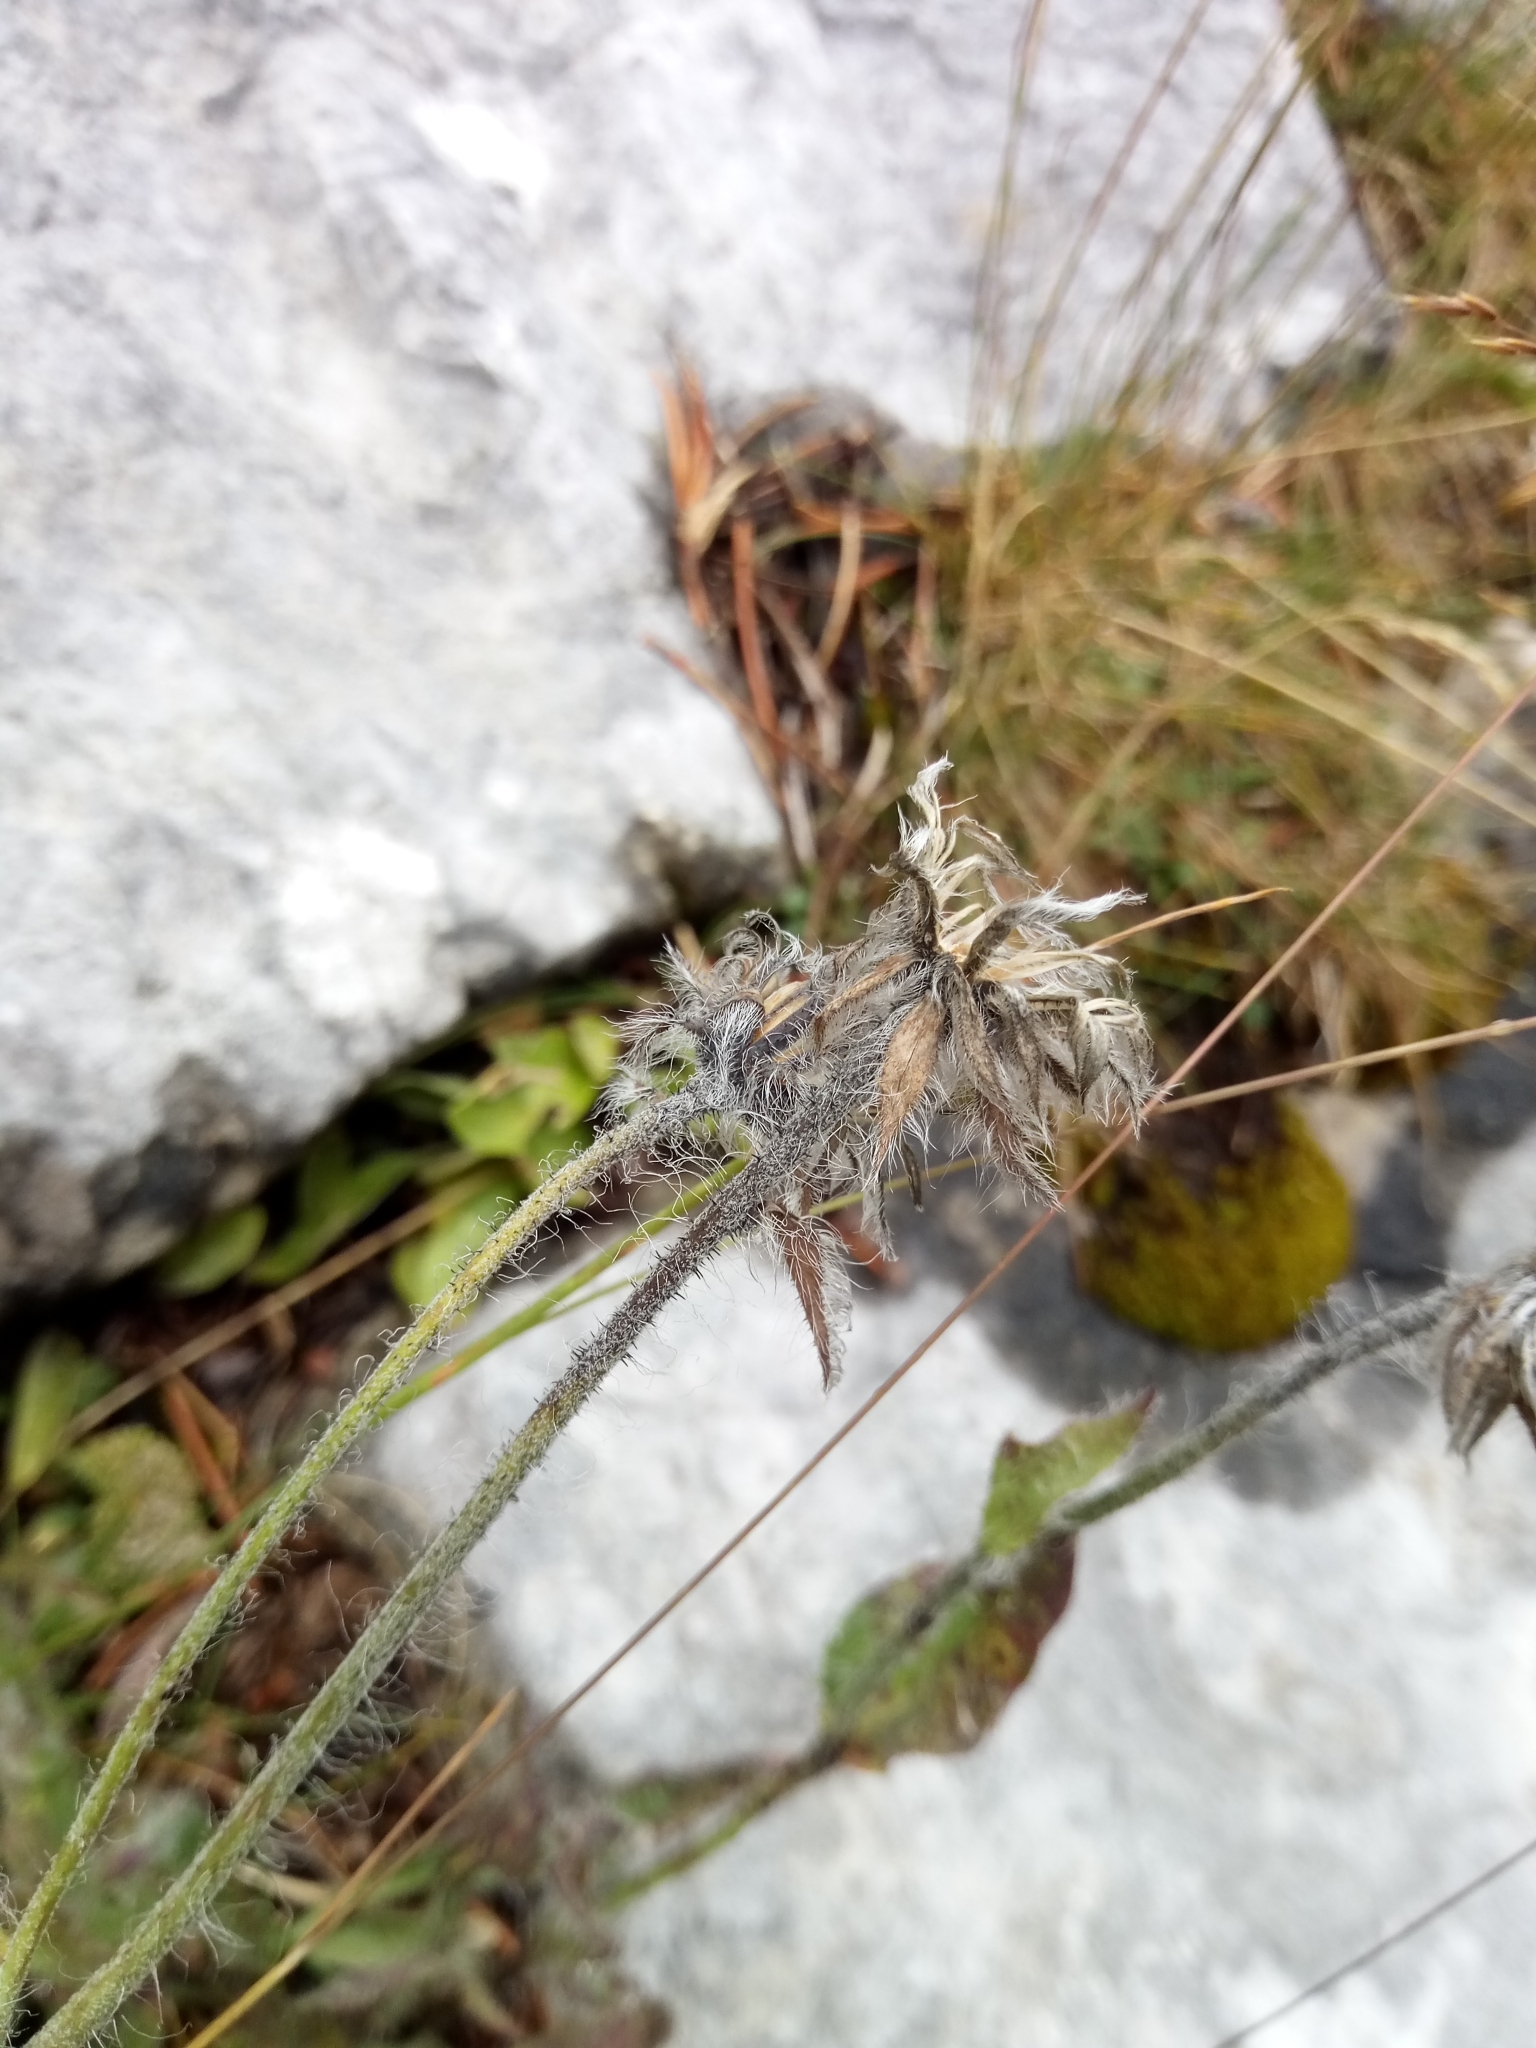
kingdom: Plantae
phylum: Tracheophyta
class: Magnoliopsida
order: Asterales
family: Asteraceae
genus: Hieracium
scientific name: Hieracium villosum
